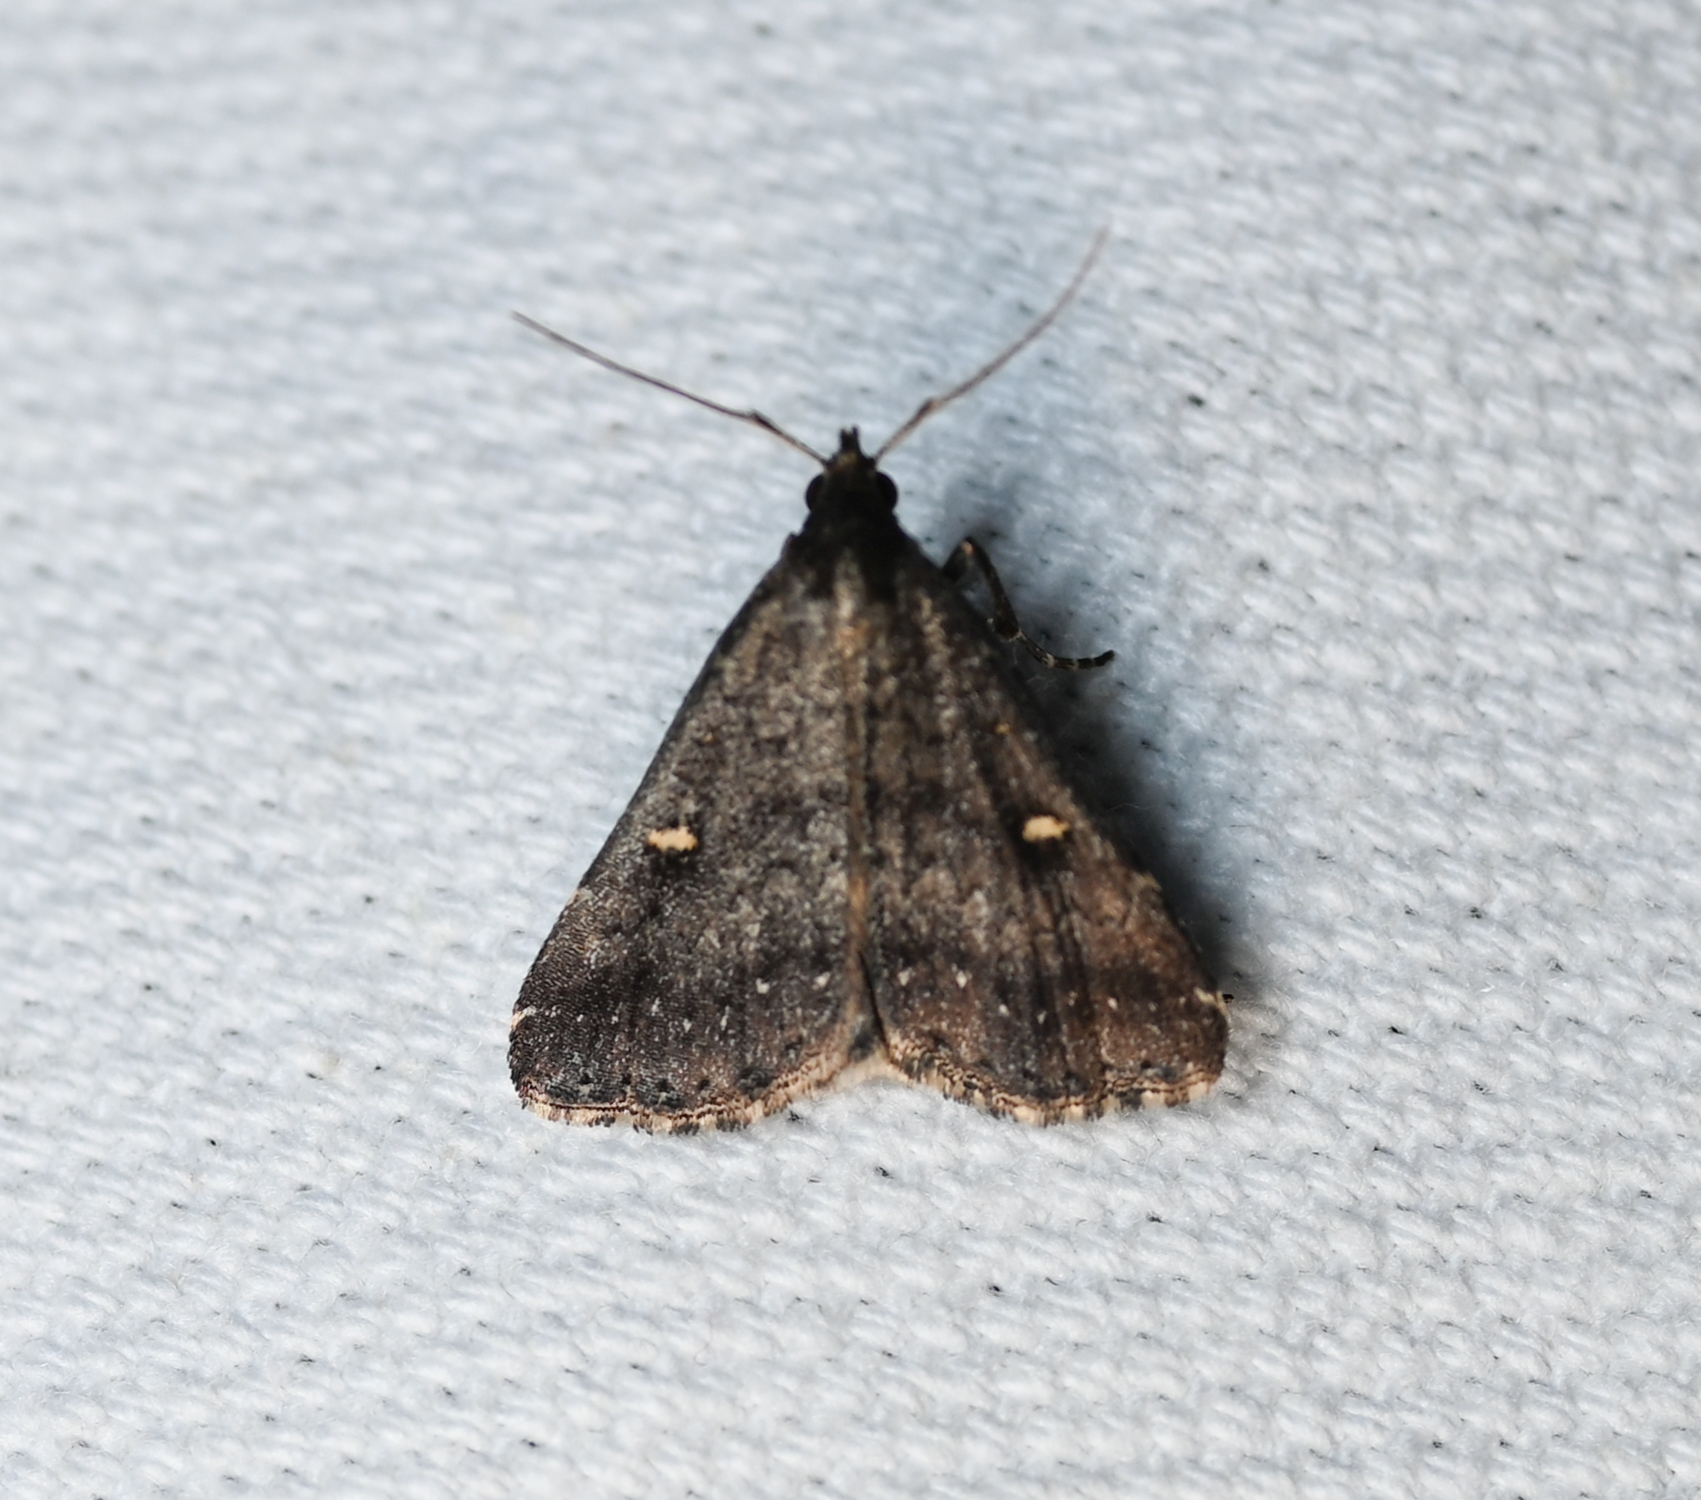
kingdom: Animalia
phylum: Arthropoda
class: Insecta
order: Lepidoptera
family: Erebidae
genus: Tetanolita
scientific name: Tetanolita mynesalis
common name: Smoky tetanolita moth
